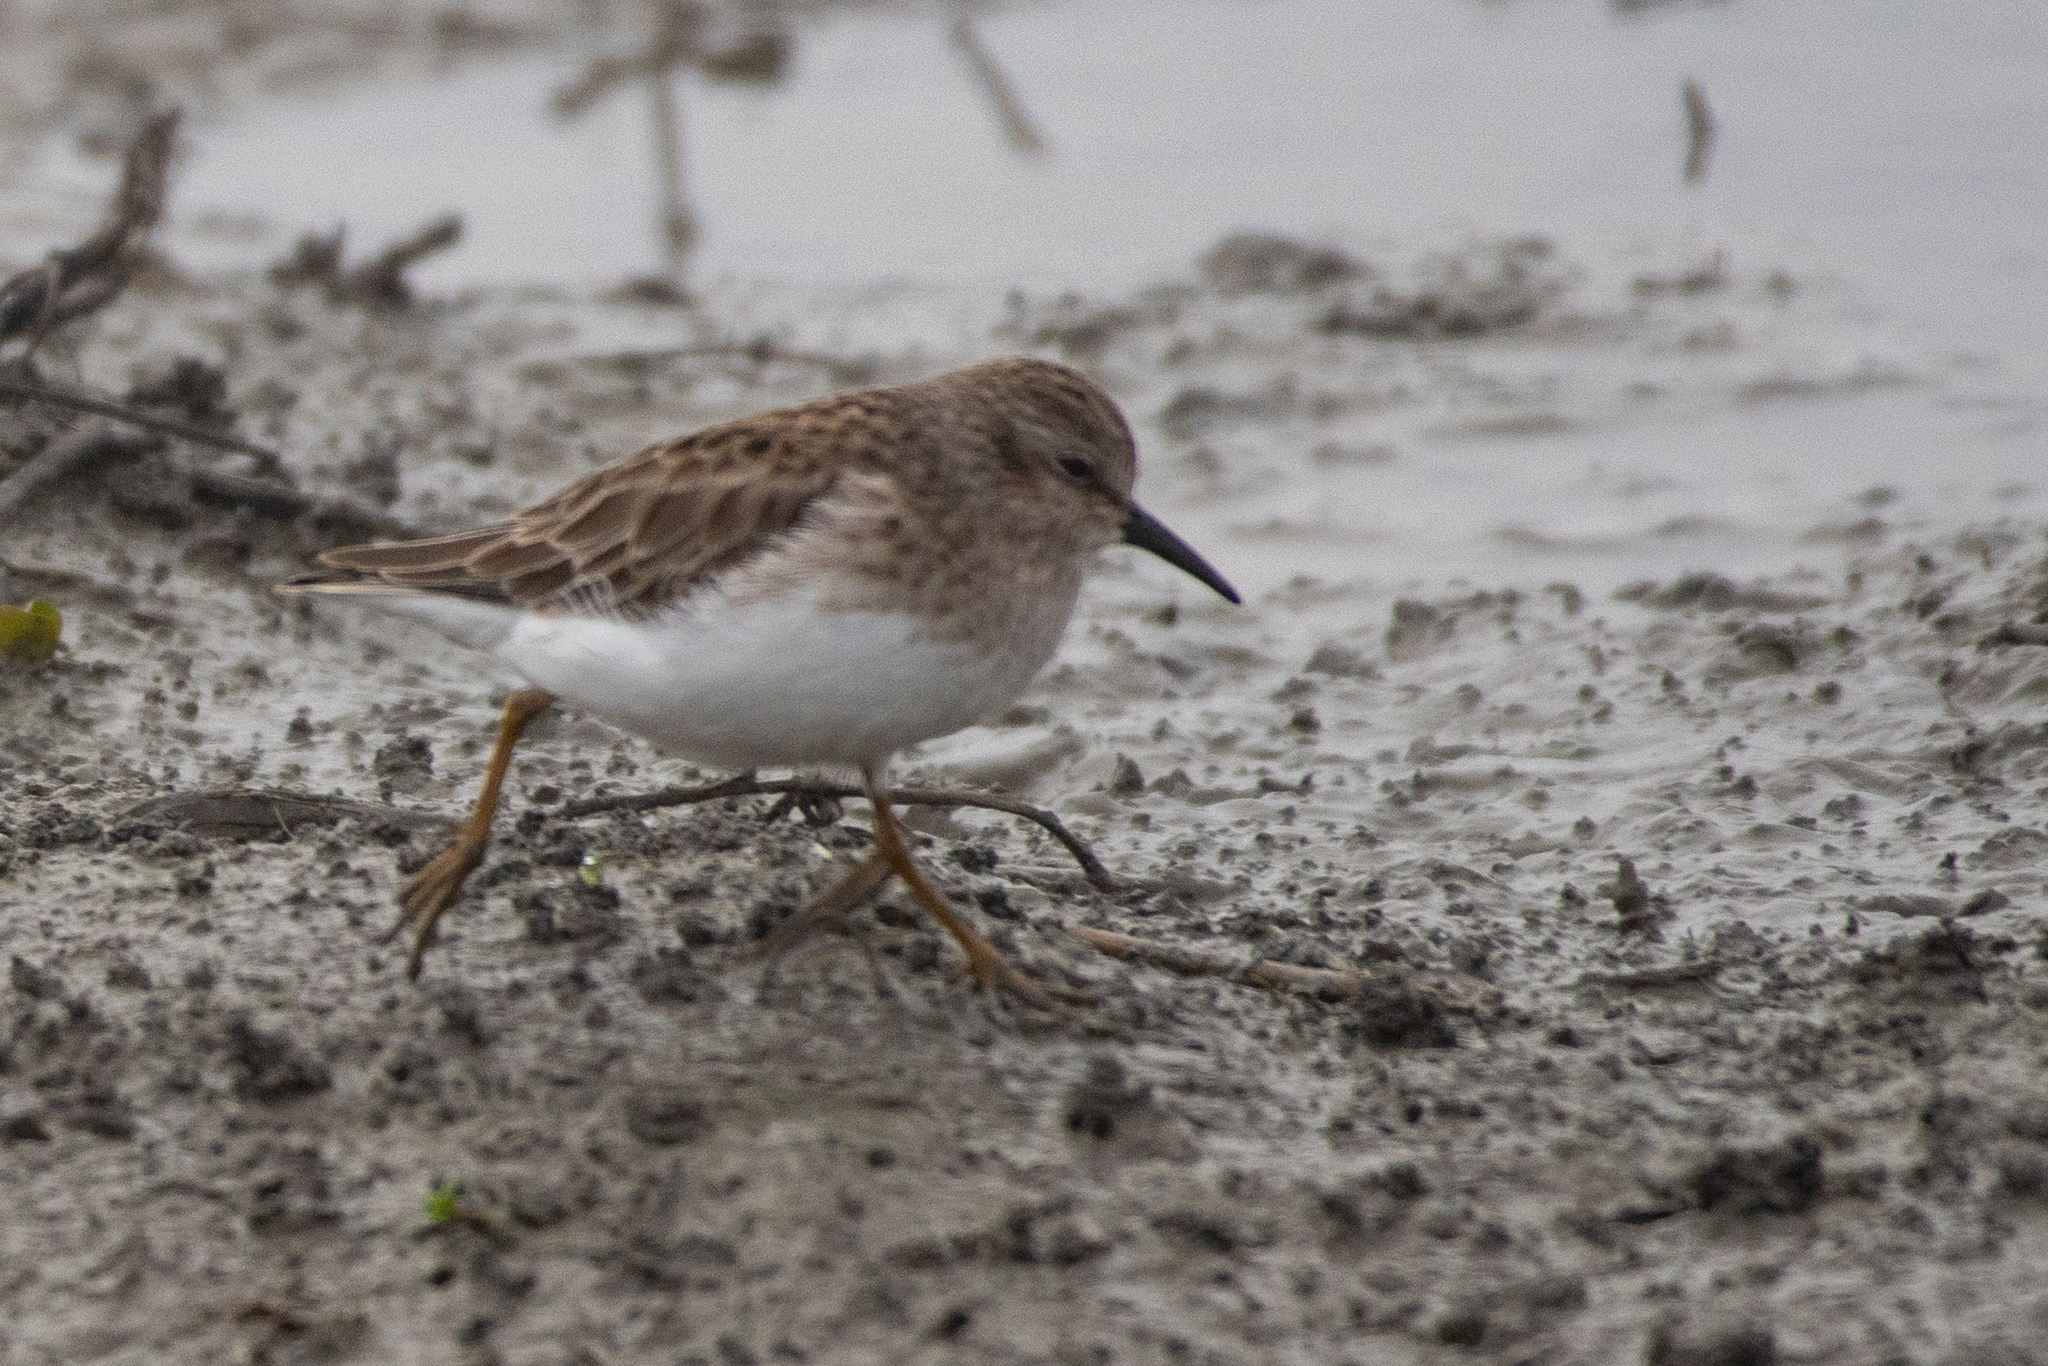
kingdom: Animalia
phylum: Chordata
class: Aves
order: Charadriiformes
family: Scolopacidae
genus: Calidris
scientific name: Calidris minutilla
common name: Least sandpiper
